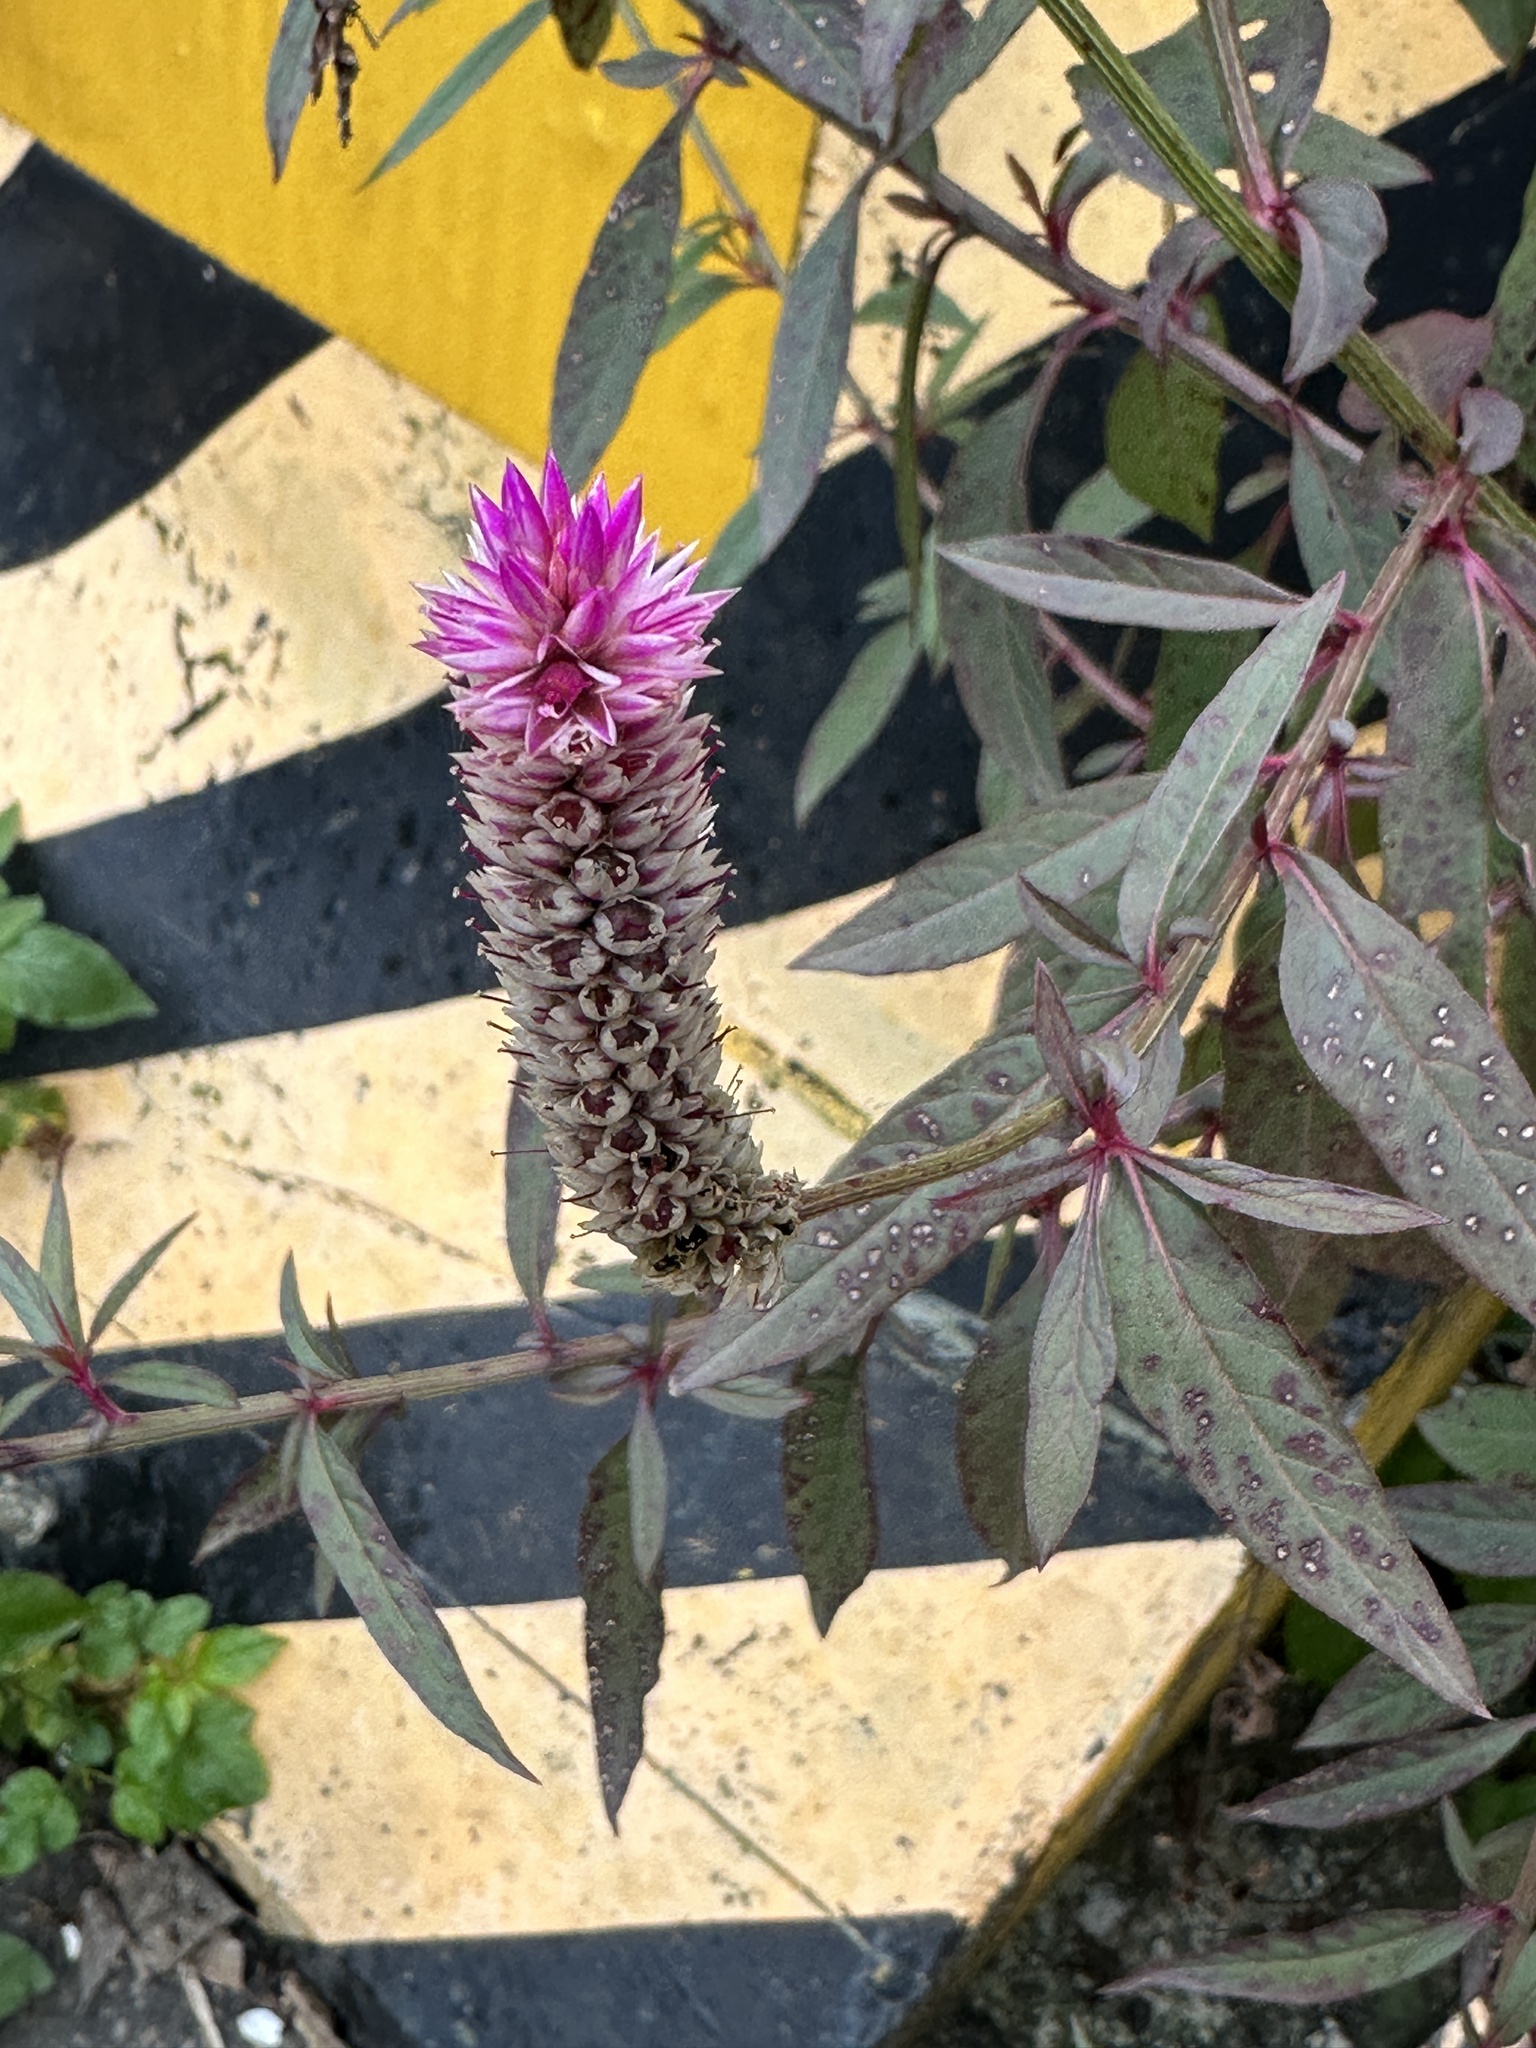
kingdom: Plantae
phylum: Tracheophyta
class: Magnoliopsida
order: Caryophyllales
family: Amaranthaceae
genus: Celosia
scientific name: Celosia argentea
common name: Feather cockscomb
